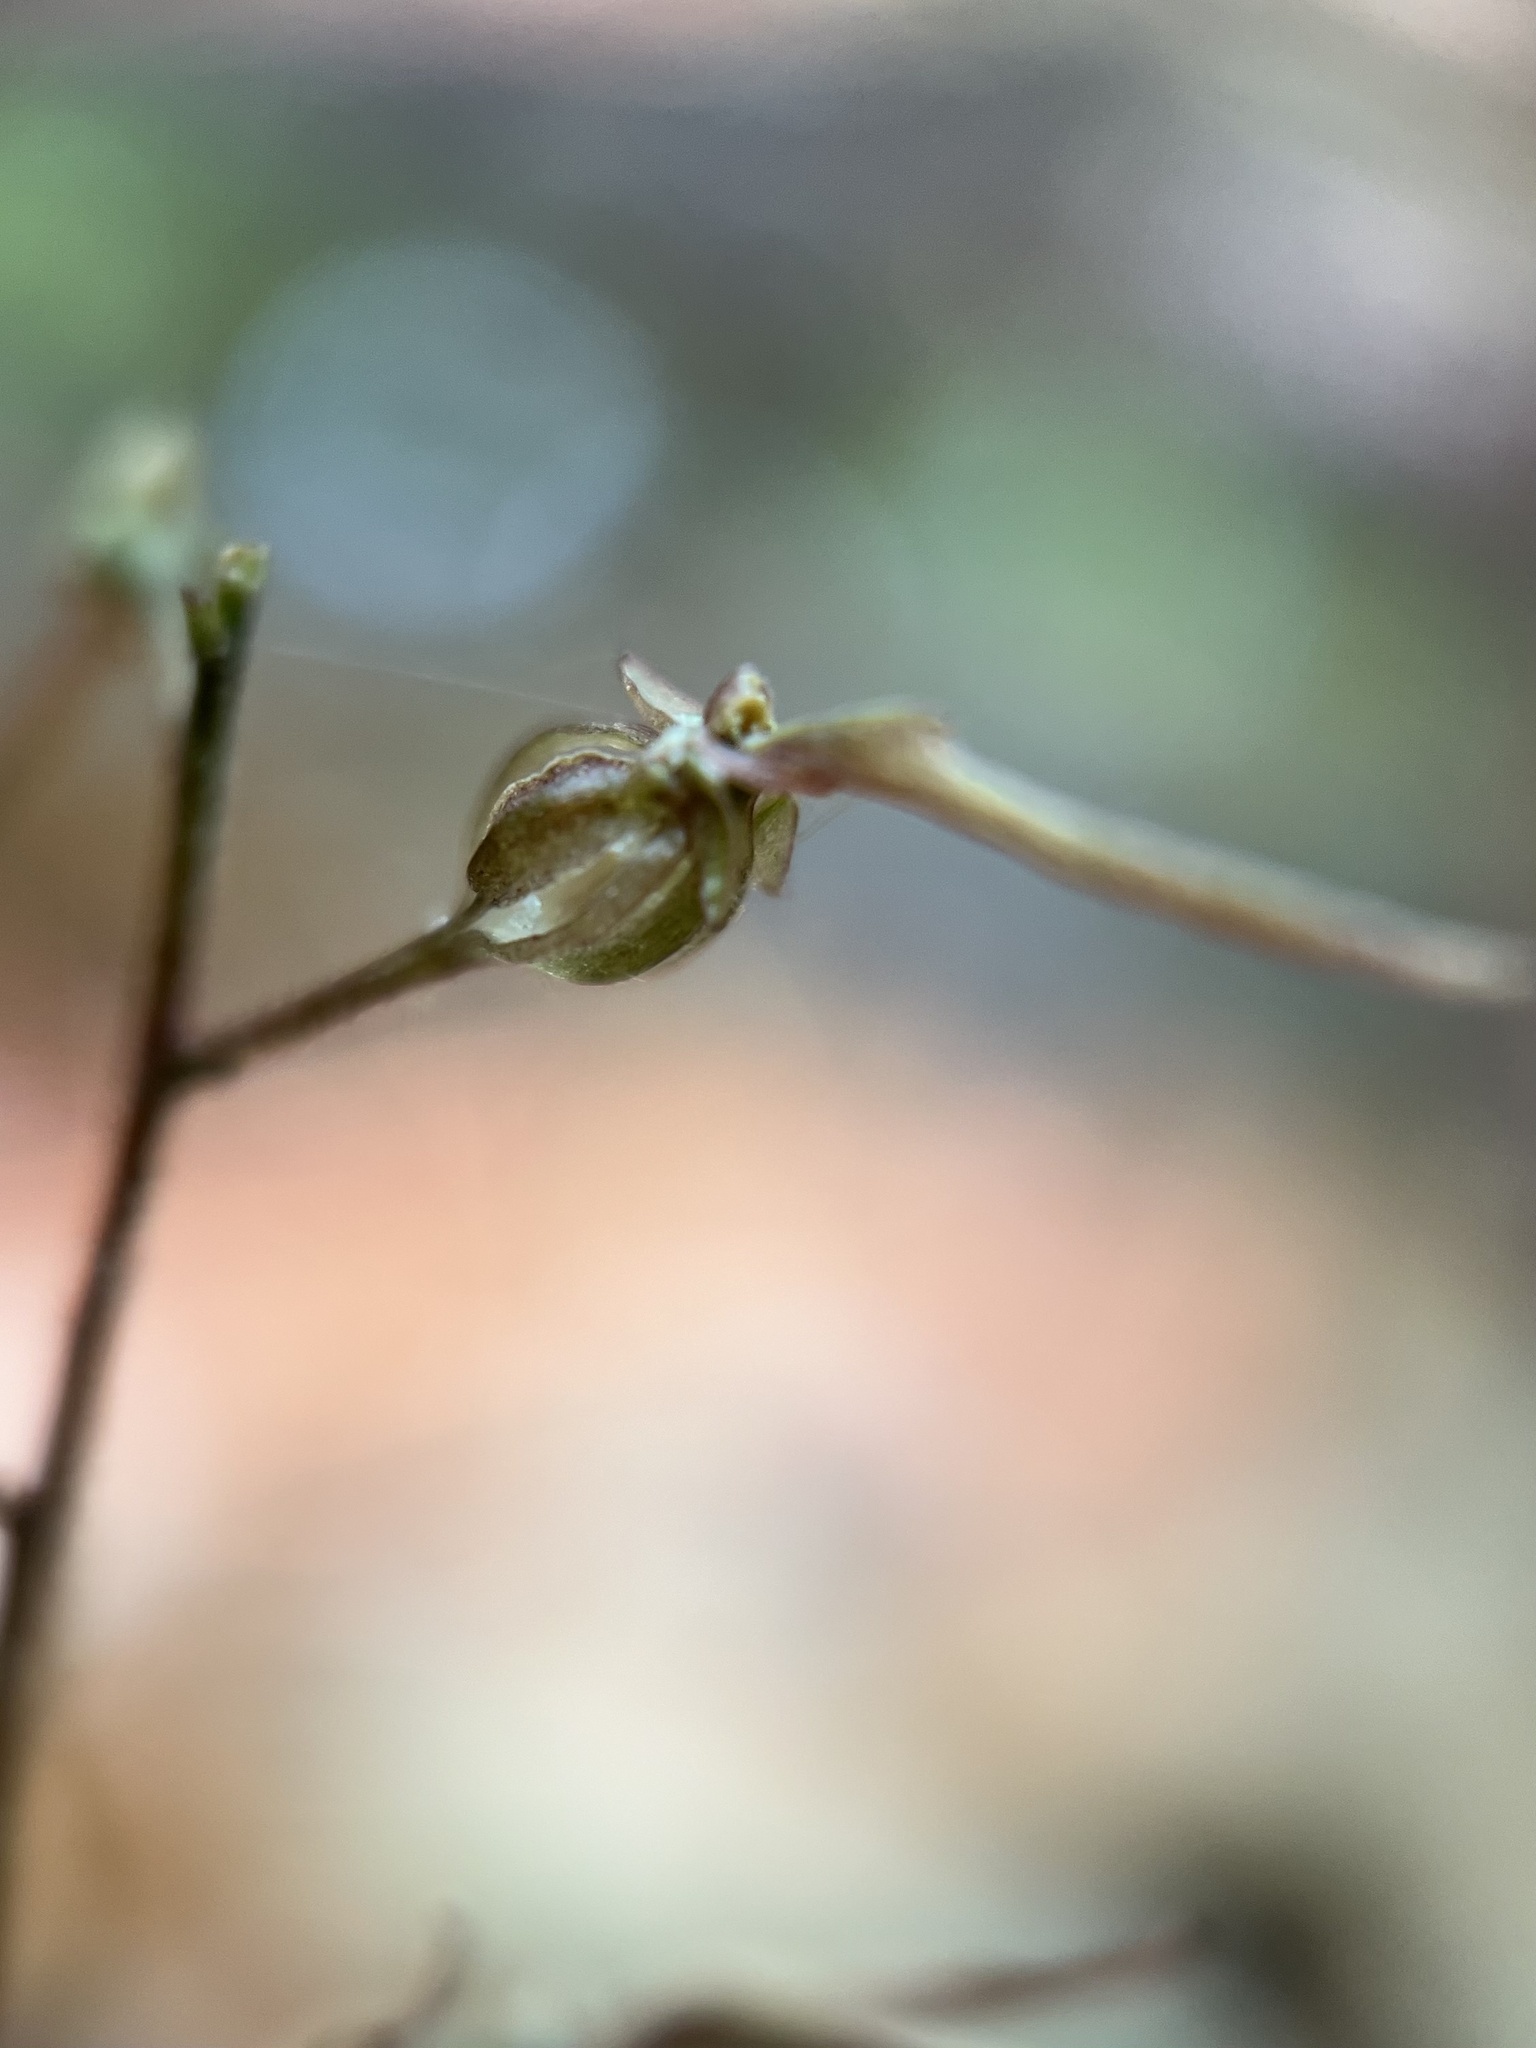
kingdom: Plantae
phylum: Tracheophyta
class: Liliopsida
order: Asparagales
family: Orchidaceae
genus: Neottia
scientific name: Neottia bifolia
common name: Southern twayblade
